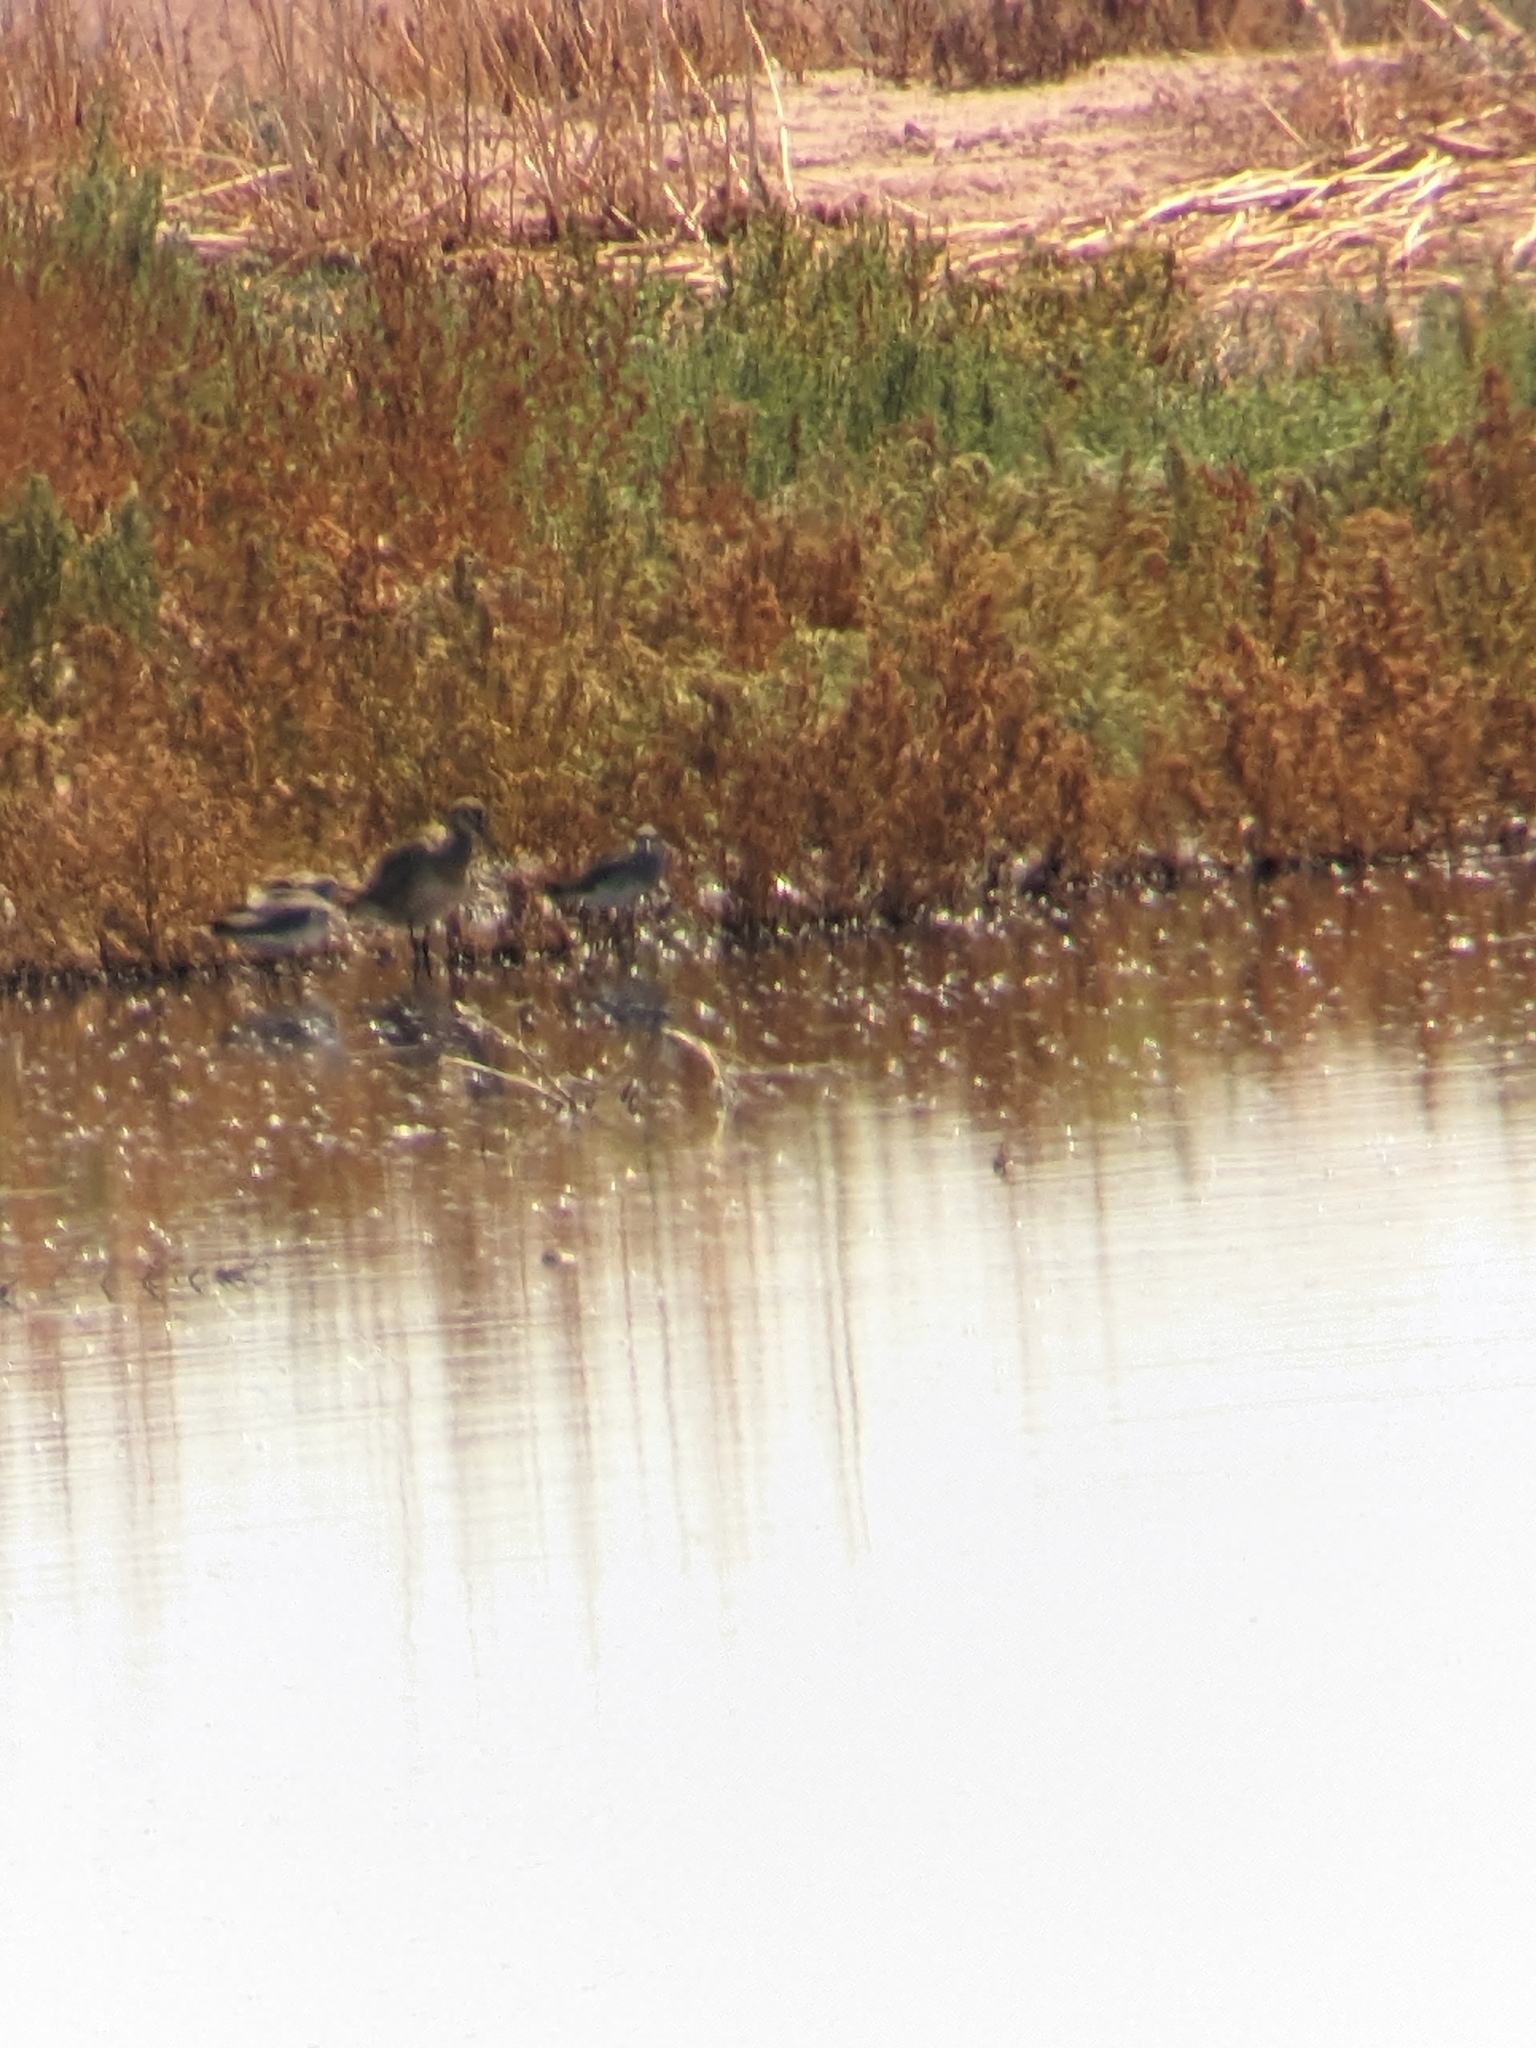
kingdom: Animalia
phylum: Chordata
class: Aves
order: Charadriiformes
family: Scolopacidae
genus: Limosa
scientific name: Limosa haemastica
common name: Hudsonian godwit
